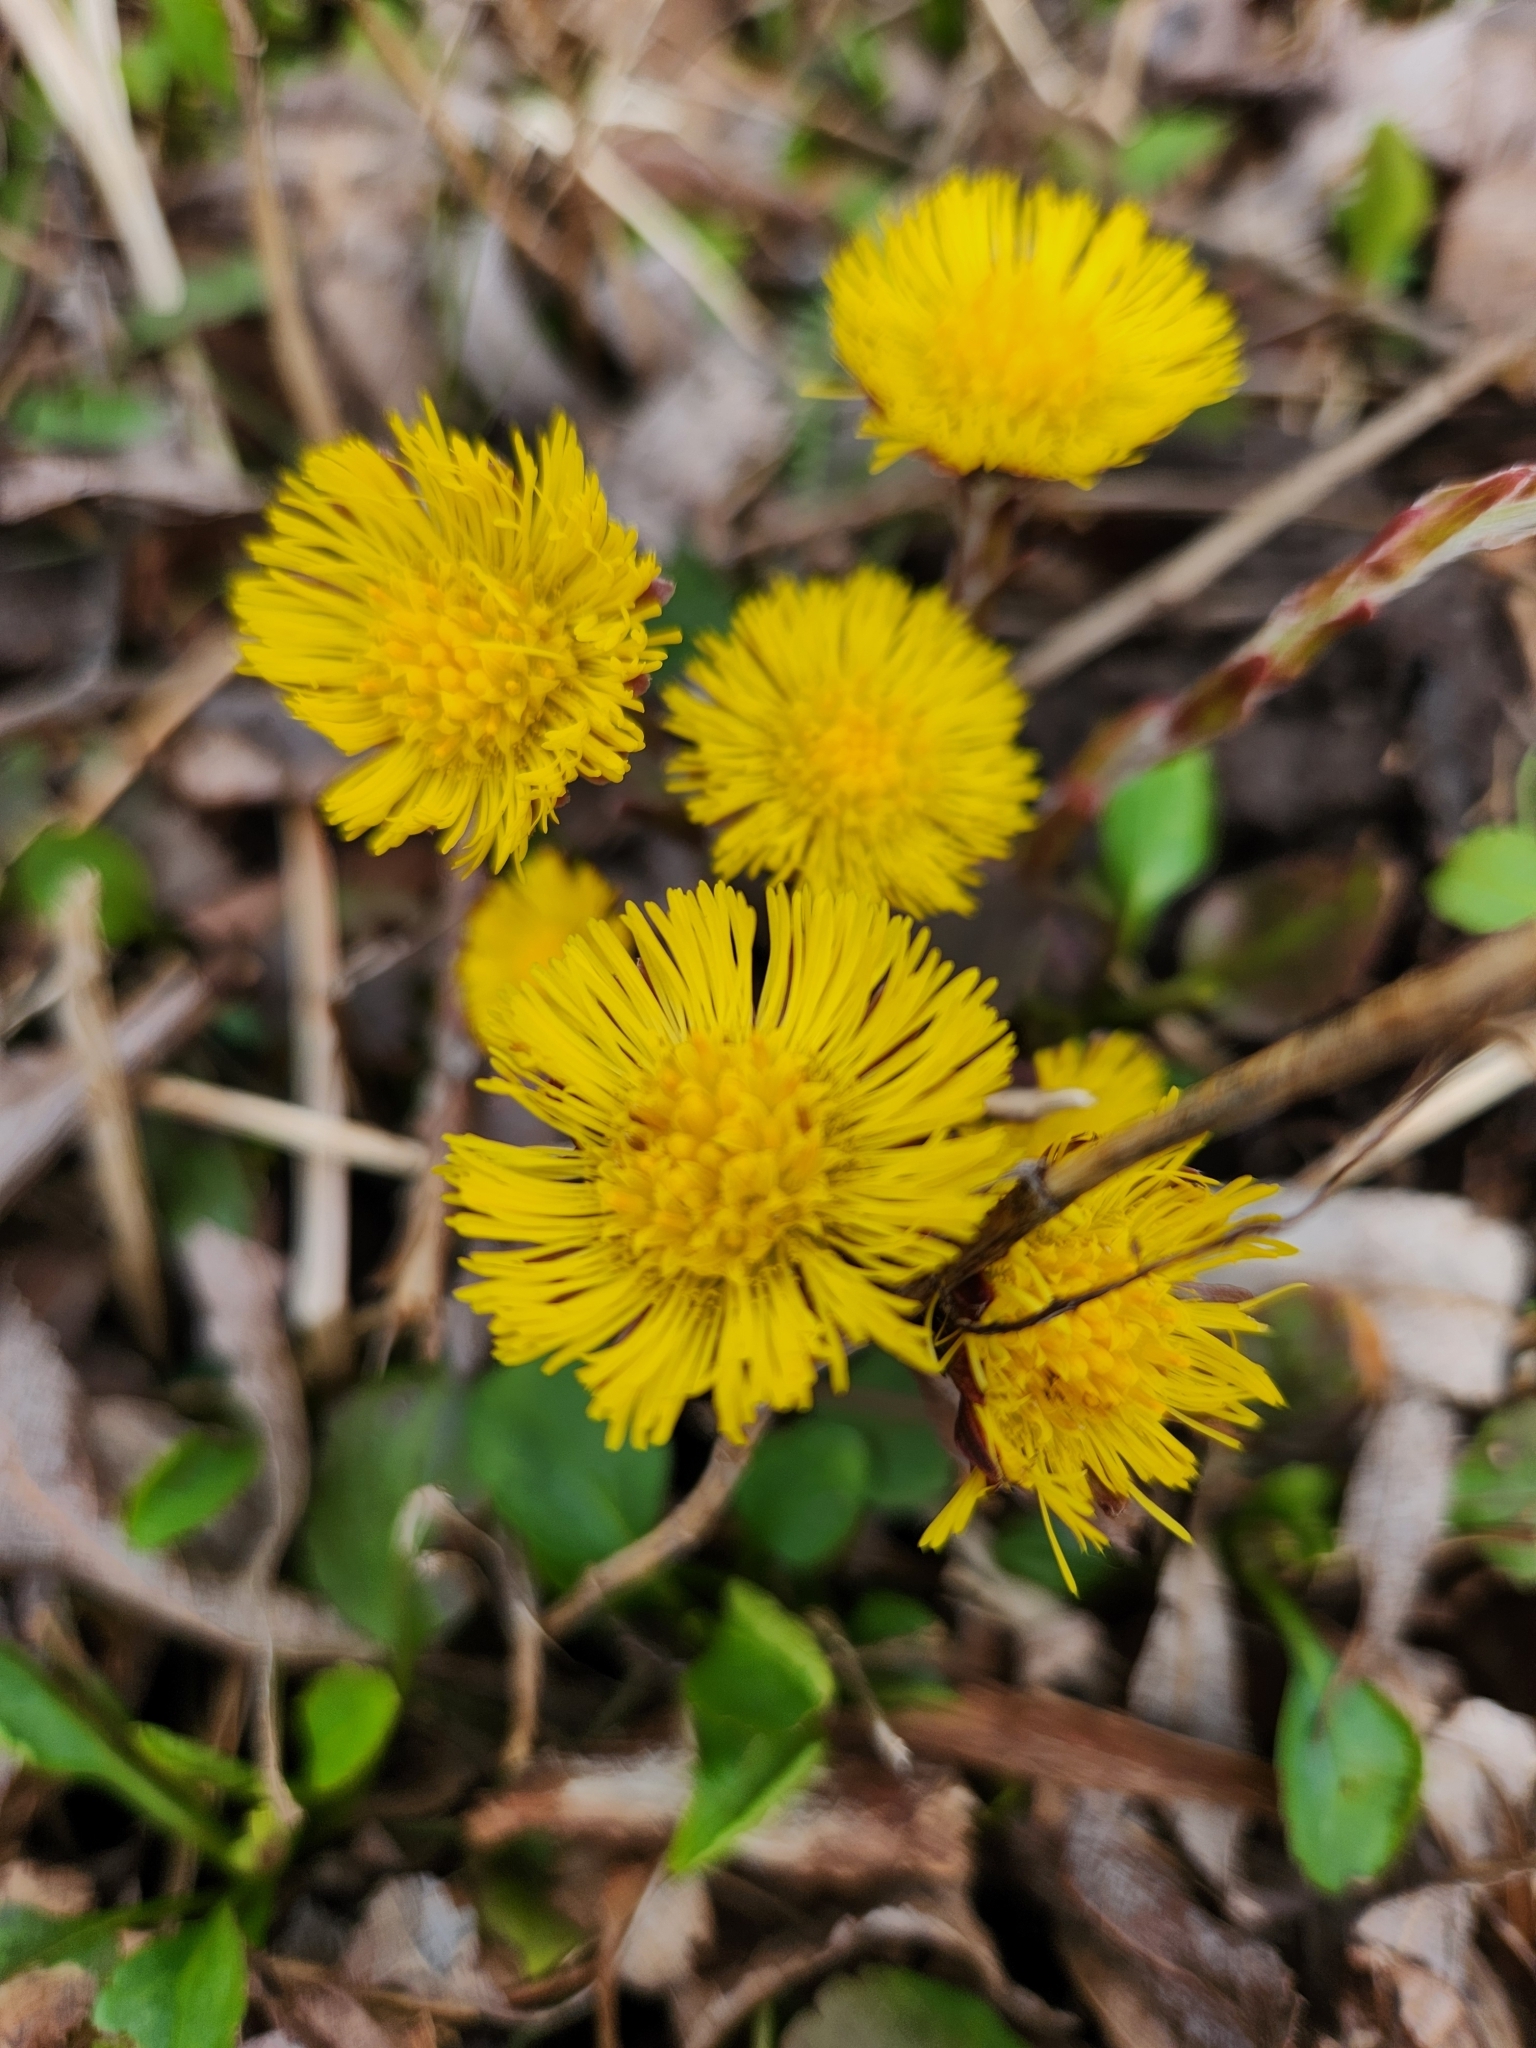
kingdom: Plantae
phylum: Tracheophyta
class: Magnoliopsida
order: Asterales
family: Asteraceae
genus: Tussilago
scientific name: Tussilago farfara
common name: Coltsfoot
